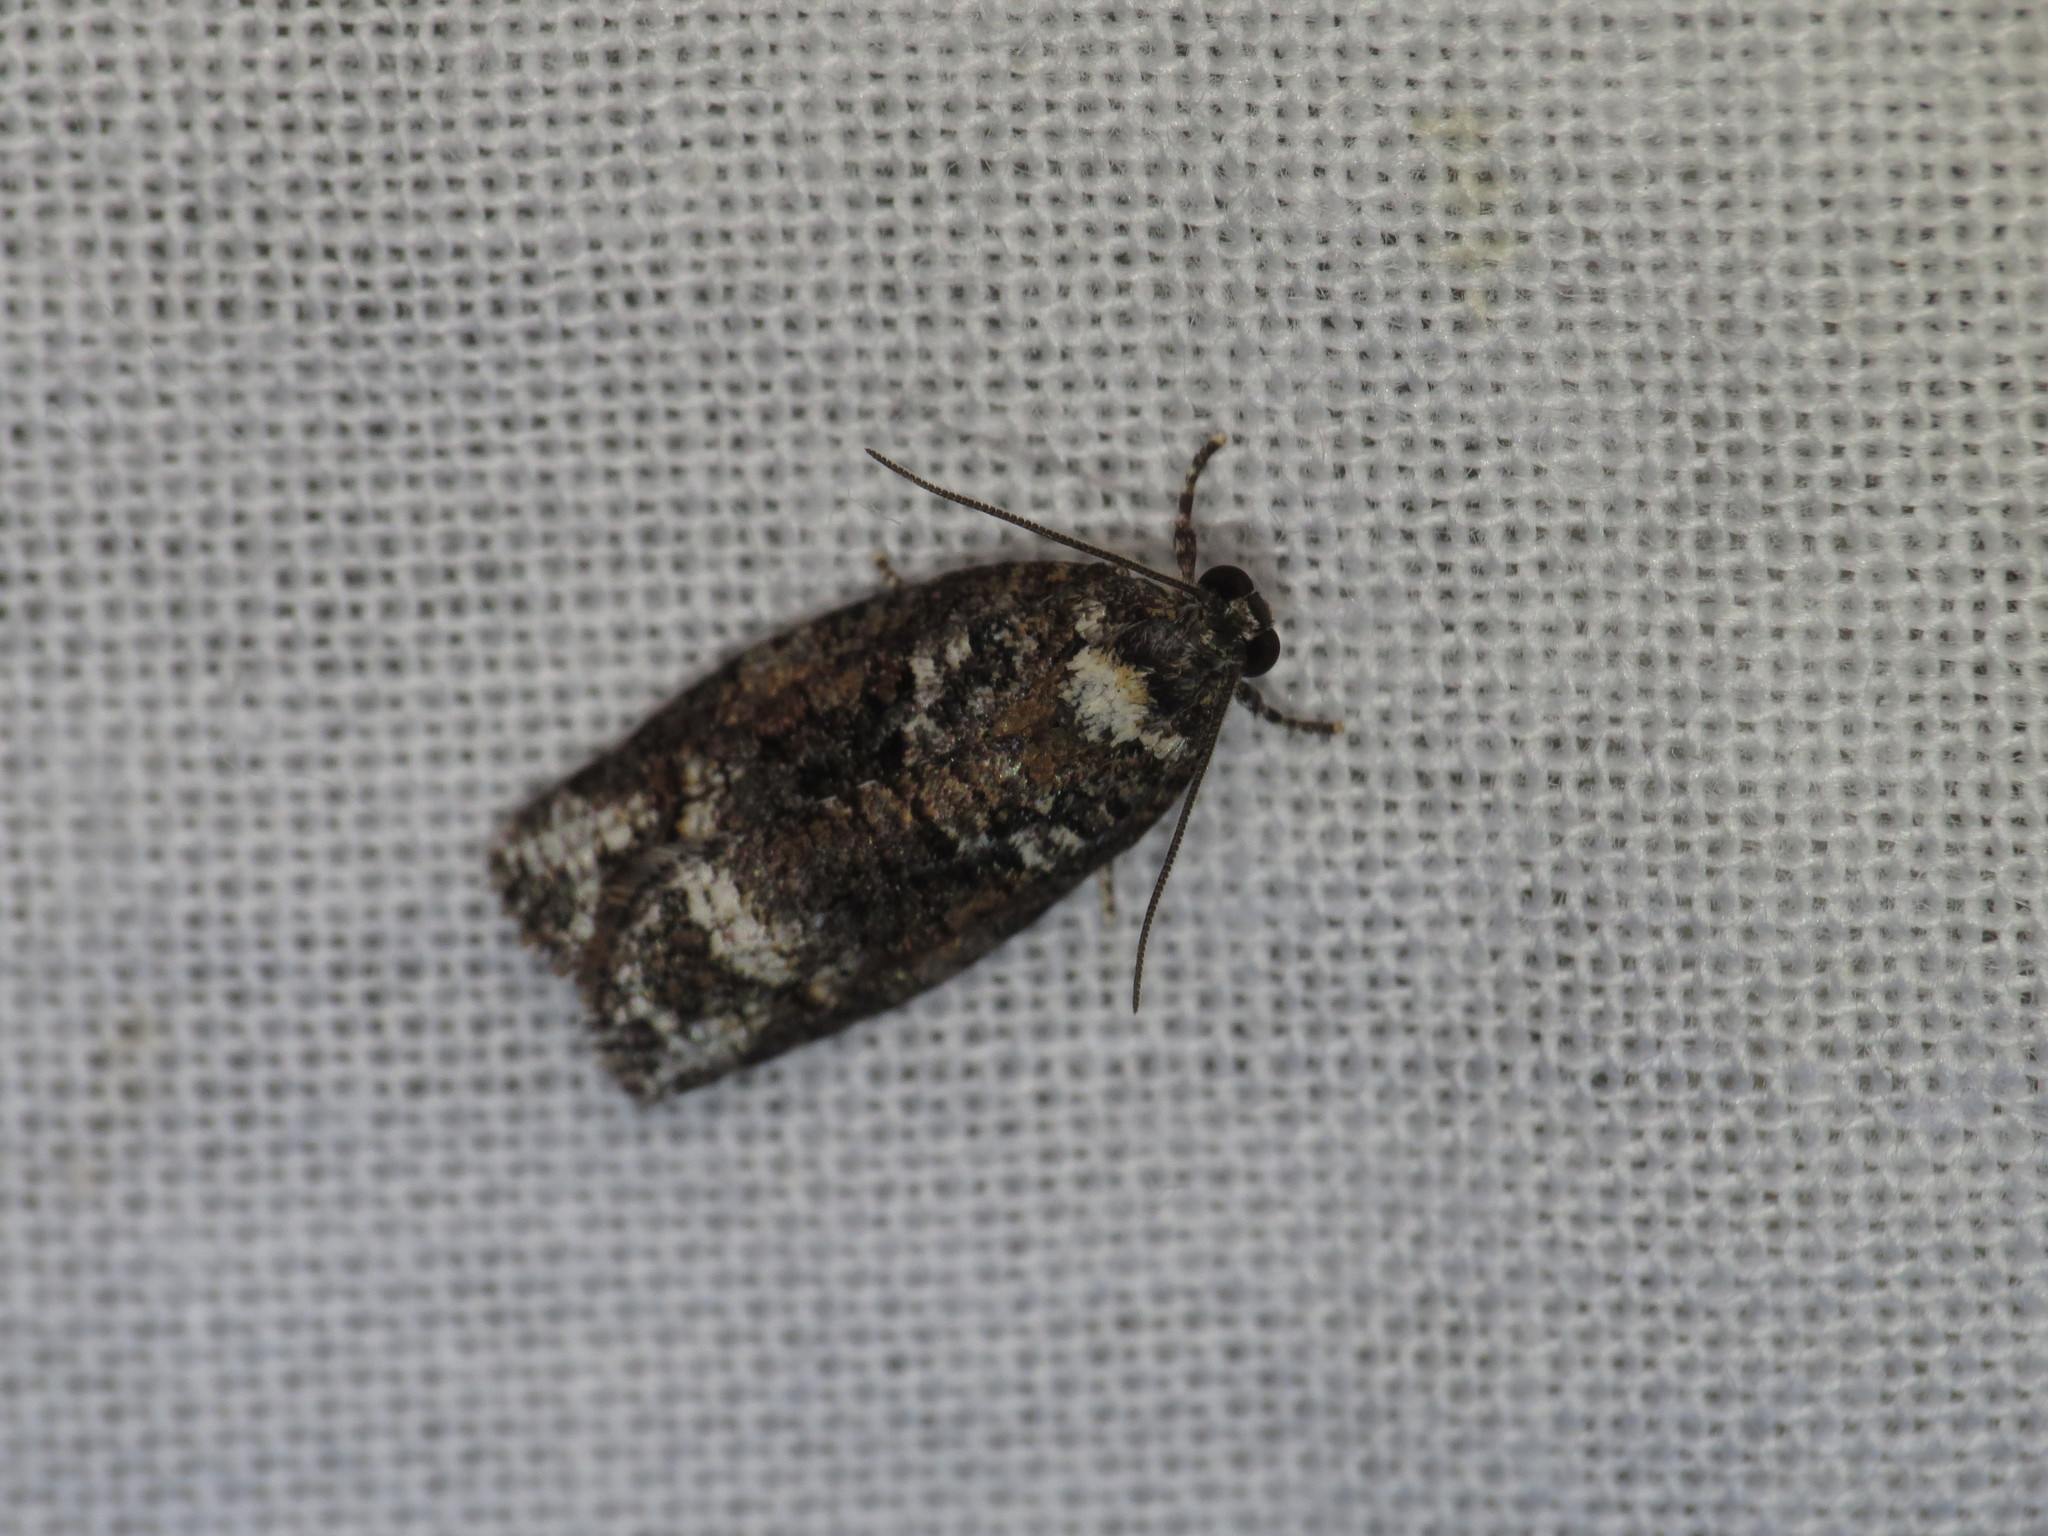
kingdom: Animalia
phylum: Arthropoda
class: Insecta
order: Lepidoptera
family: Tortricidae
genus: Thrincophora
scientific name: Thrincophora signigerana
